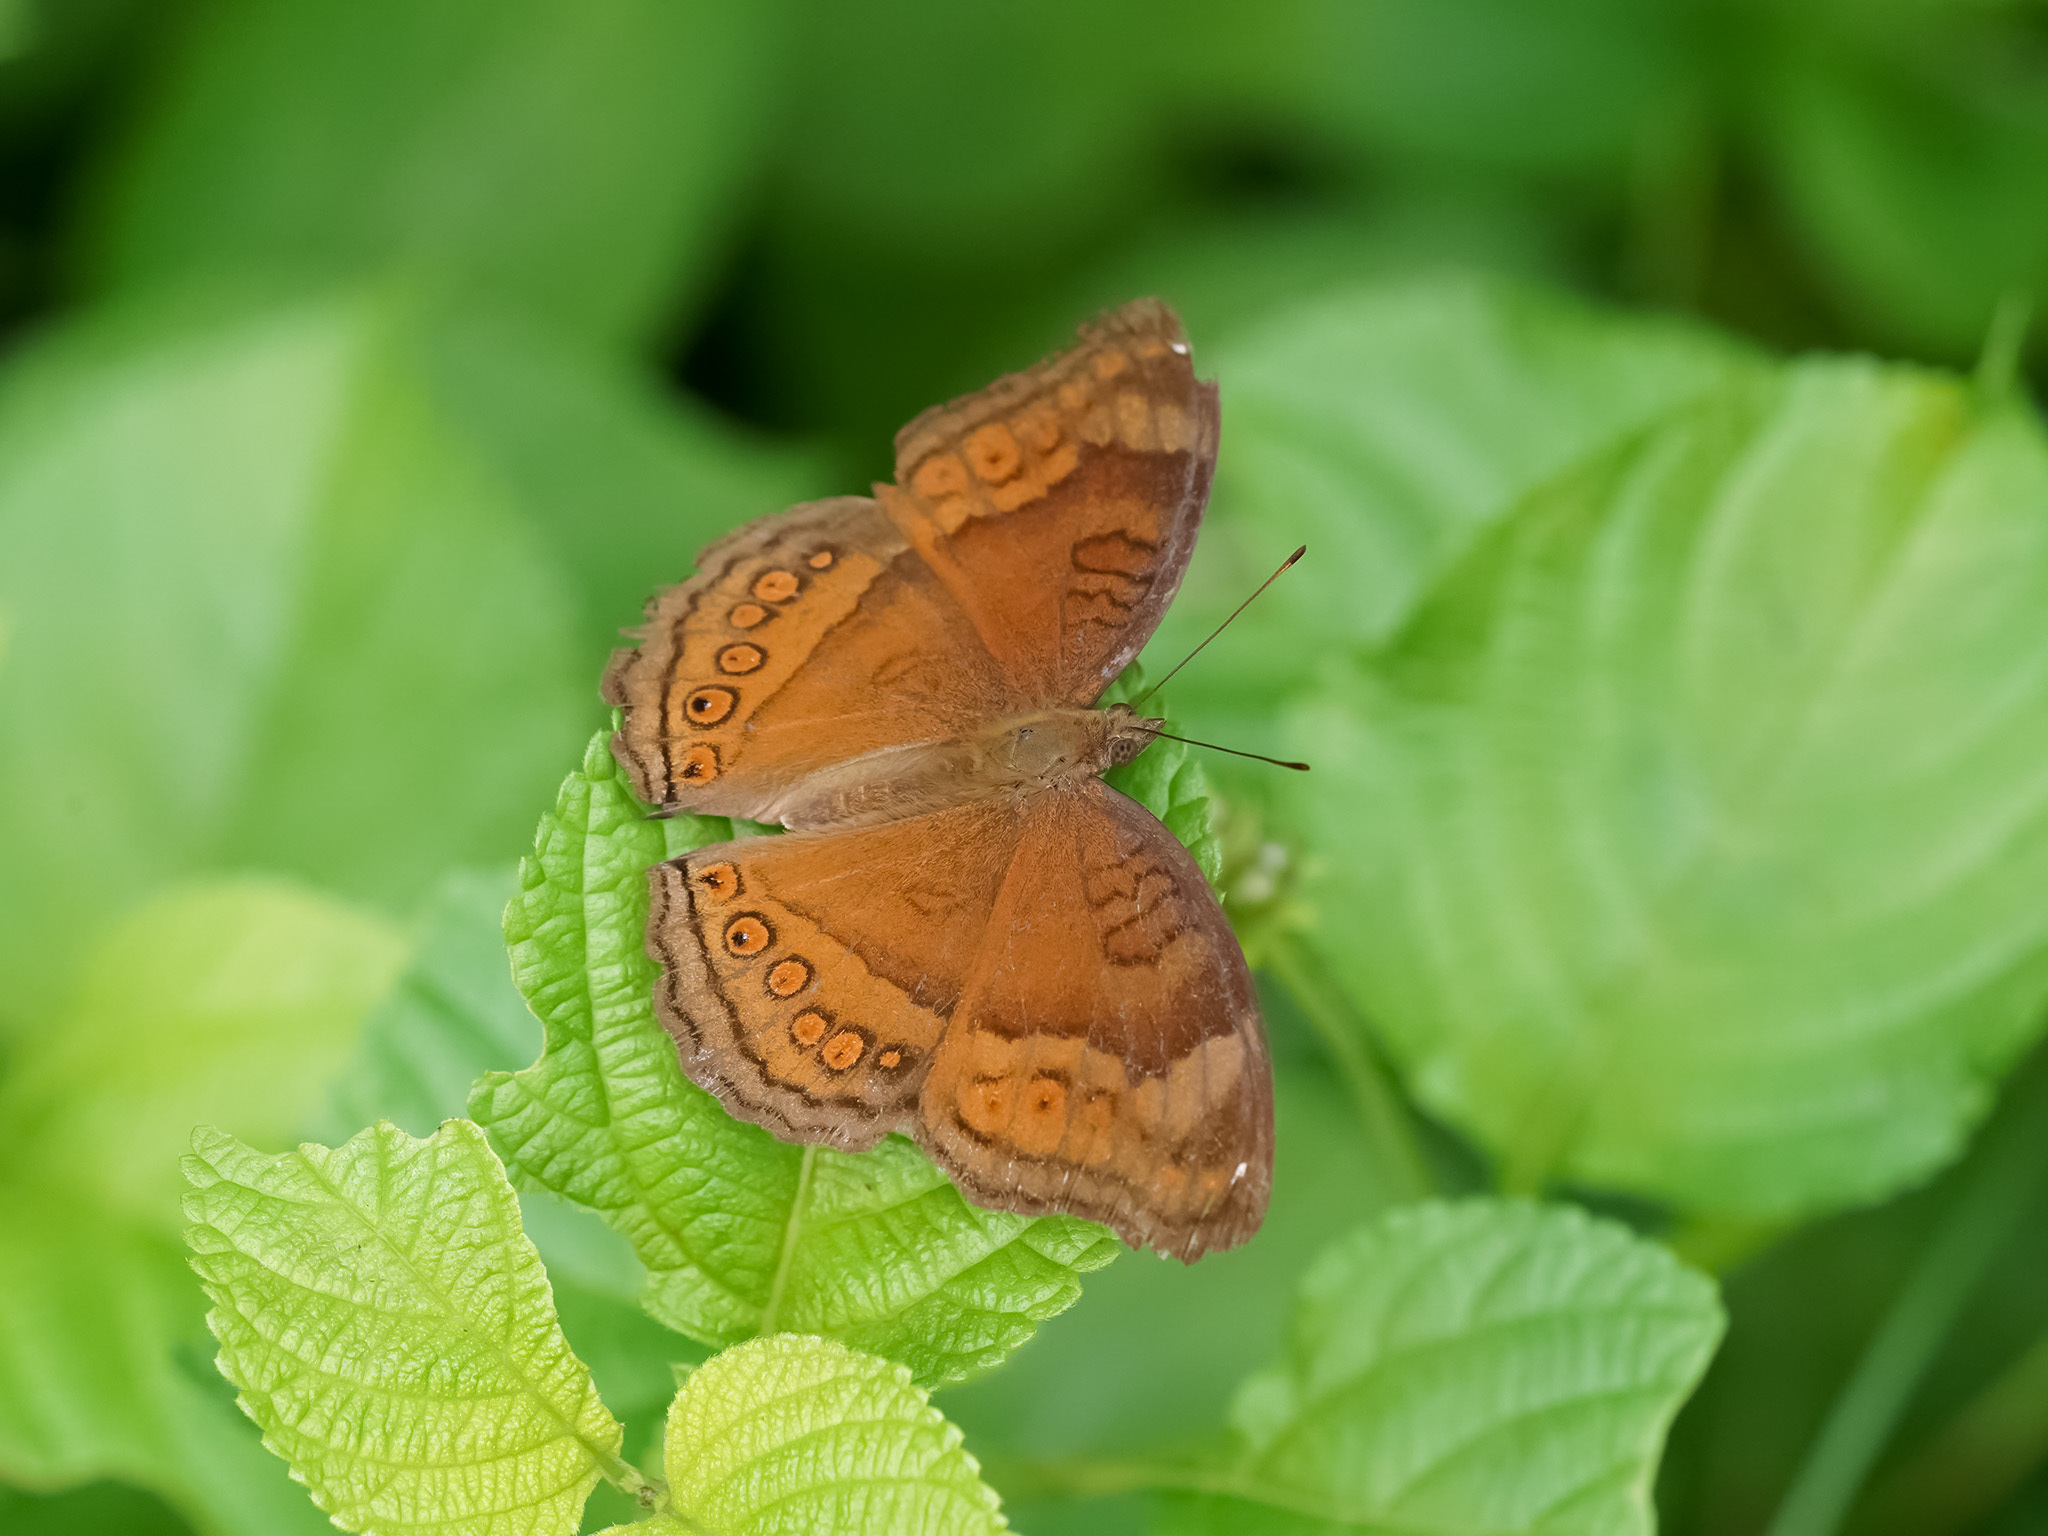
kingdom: Animalia
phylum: Arthropoda
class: Insecta
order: Lepidoptera
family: Nymphalidae
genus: Junonia
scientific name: Junonia hedonia
